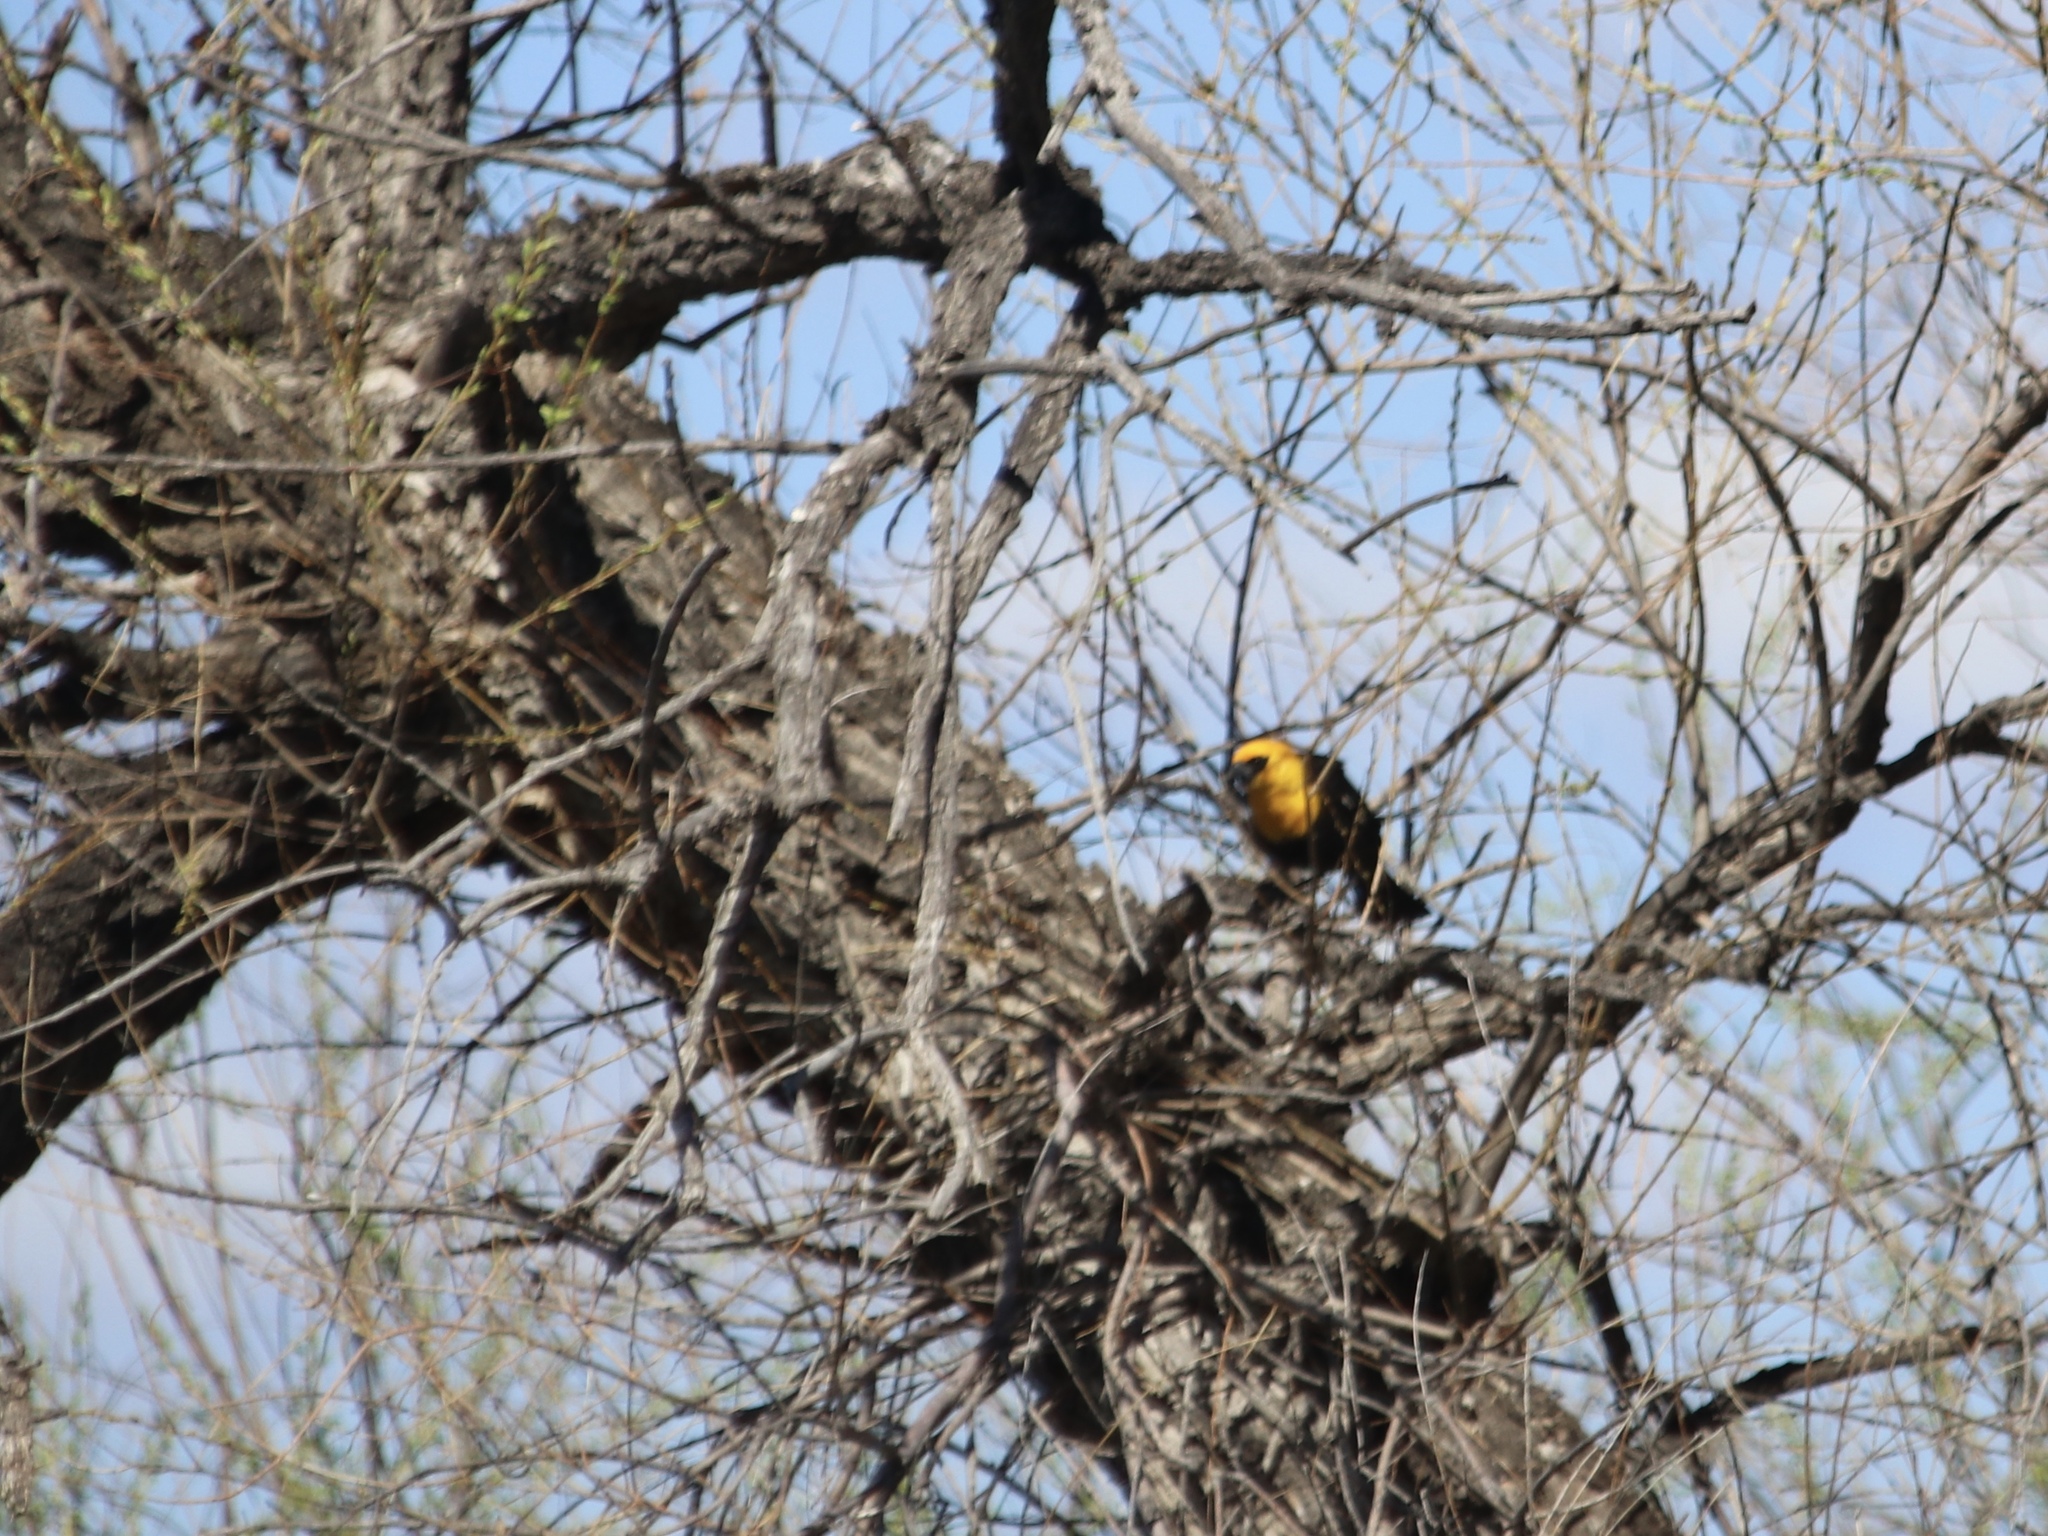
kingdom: Animalia
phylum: Chordata
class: Aves
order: Passeriformes
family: Icteridae
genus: Xanthocephalus
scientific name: Xanthocephalus xanthocephalus
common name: Yellow-headed blackbird
